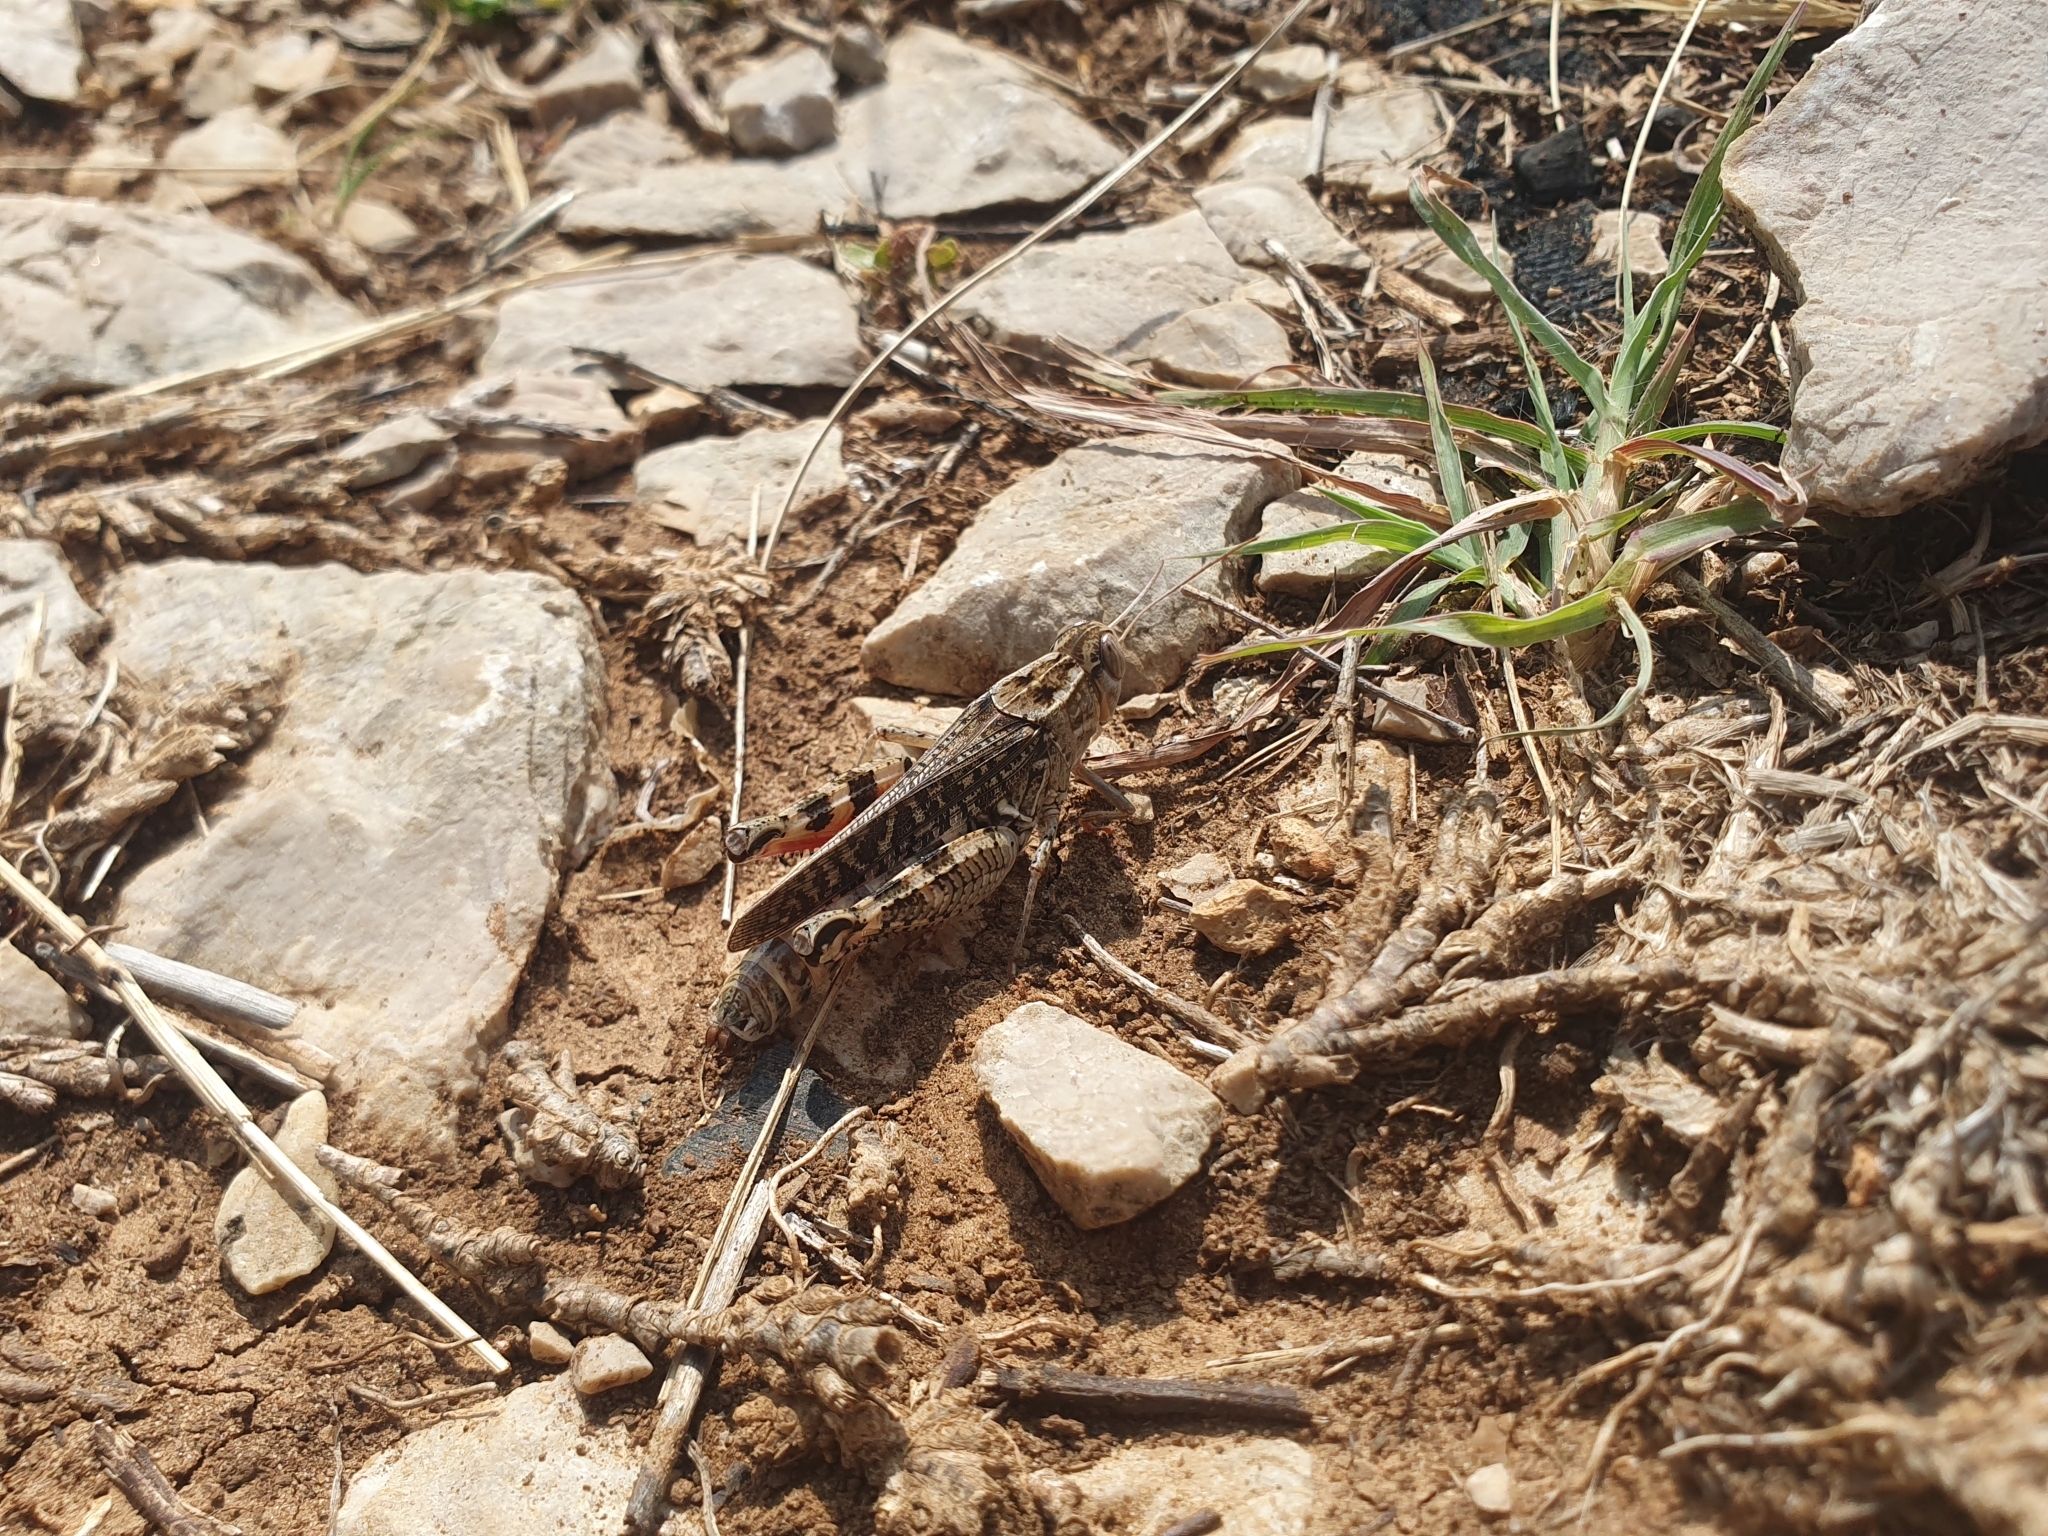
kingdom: Animalia
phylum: Arthropoda
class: Insecta
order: Orthoptera
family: Acrididae
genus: Calliptamus
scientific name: Calliptamus italicus
